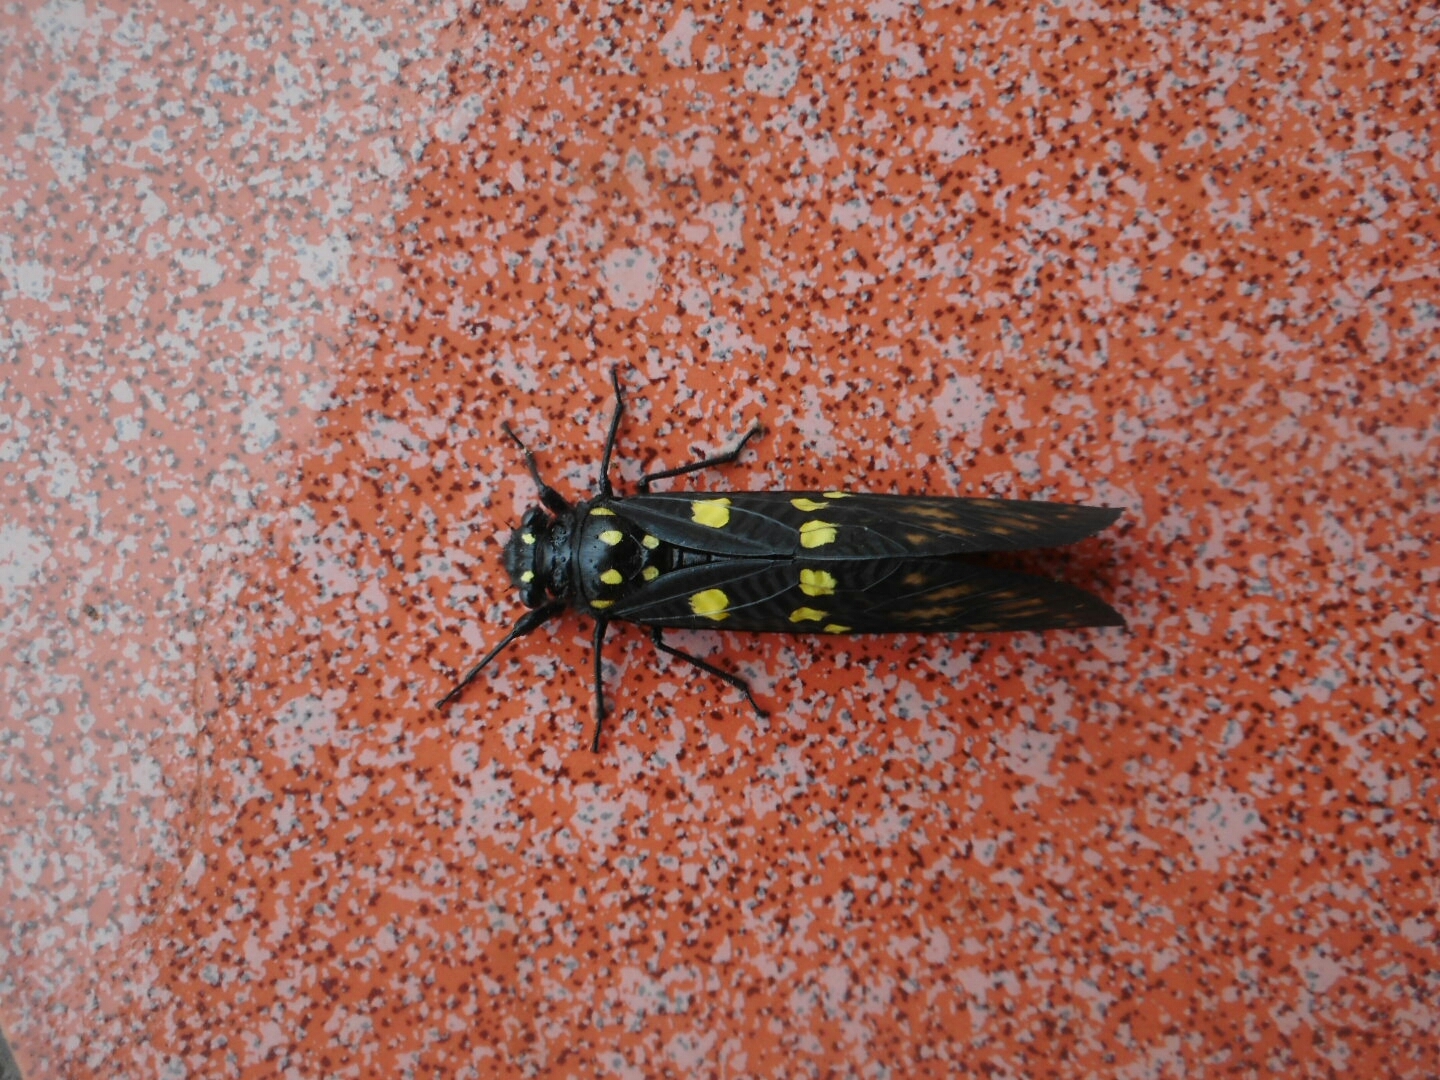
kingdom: Animalia
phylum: Arthropoda
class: Insecta
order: Hemiptera
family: Cicadidae
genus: Gaeana
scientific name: Gaeana maculata
